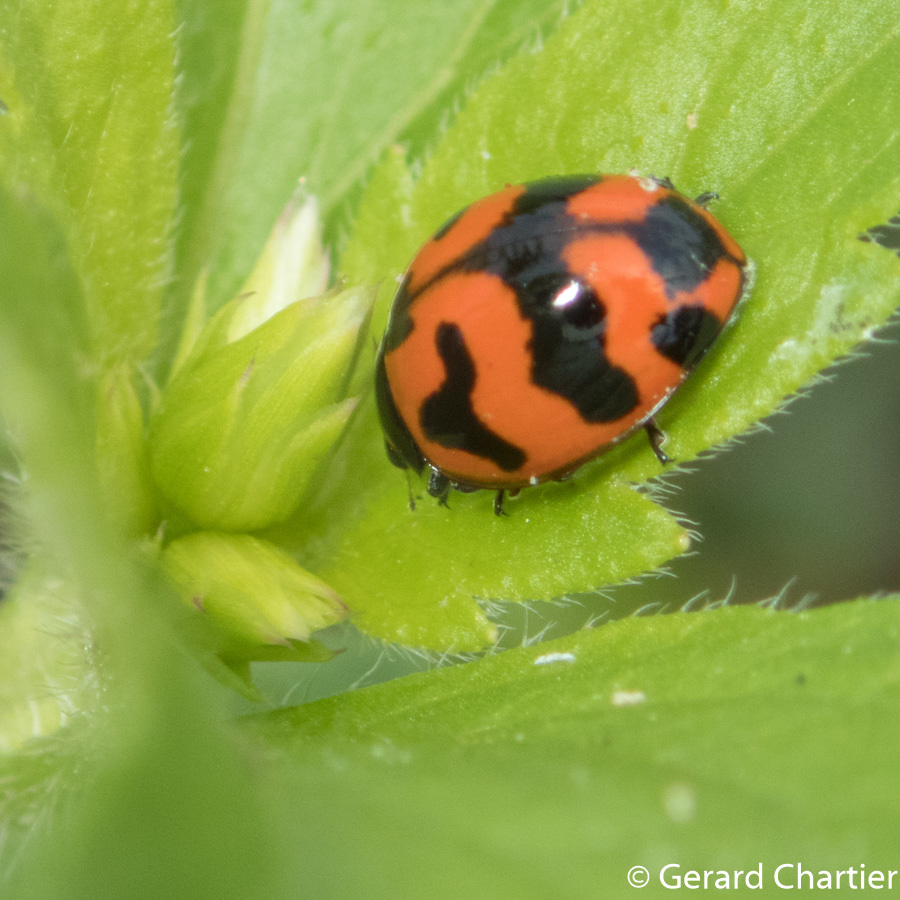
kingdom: Animalia
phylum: Arthropoda
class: Insecta
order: Coleoptera
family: Coccinellidae
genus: Coccinella
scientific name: Coccinella transversalis
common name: Transverse lady beetle
